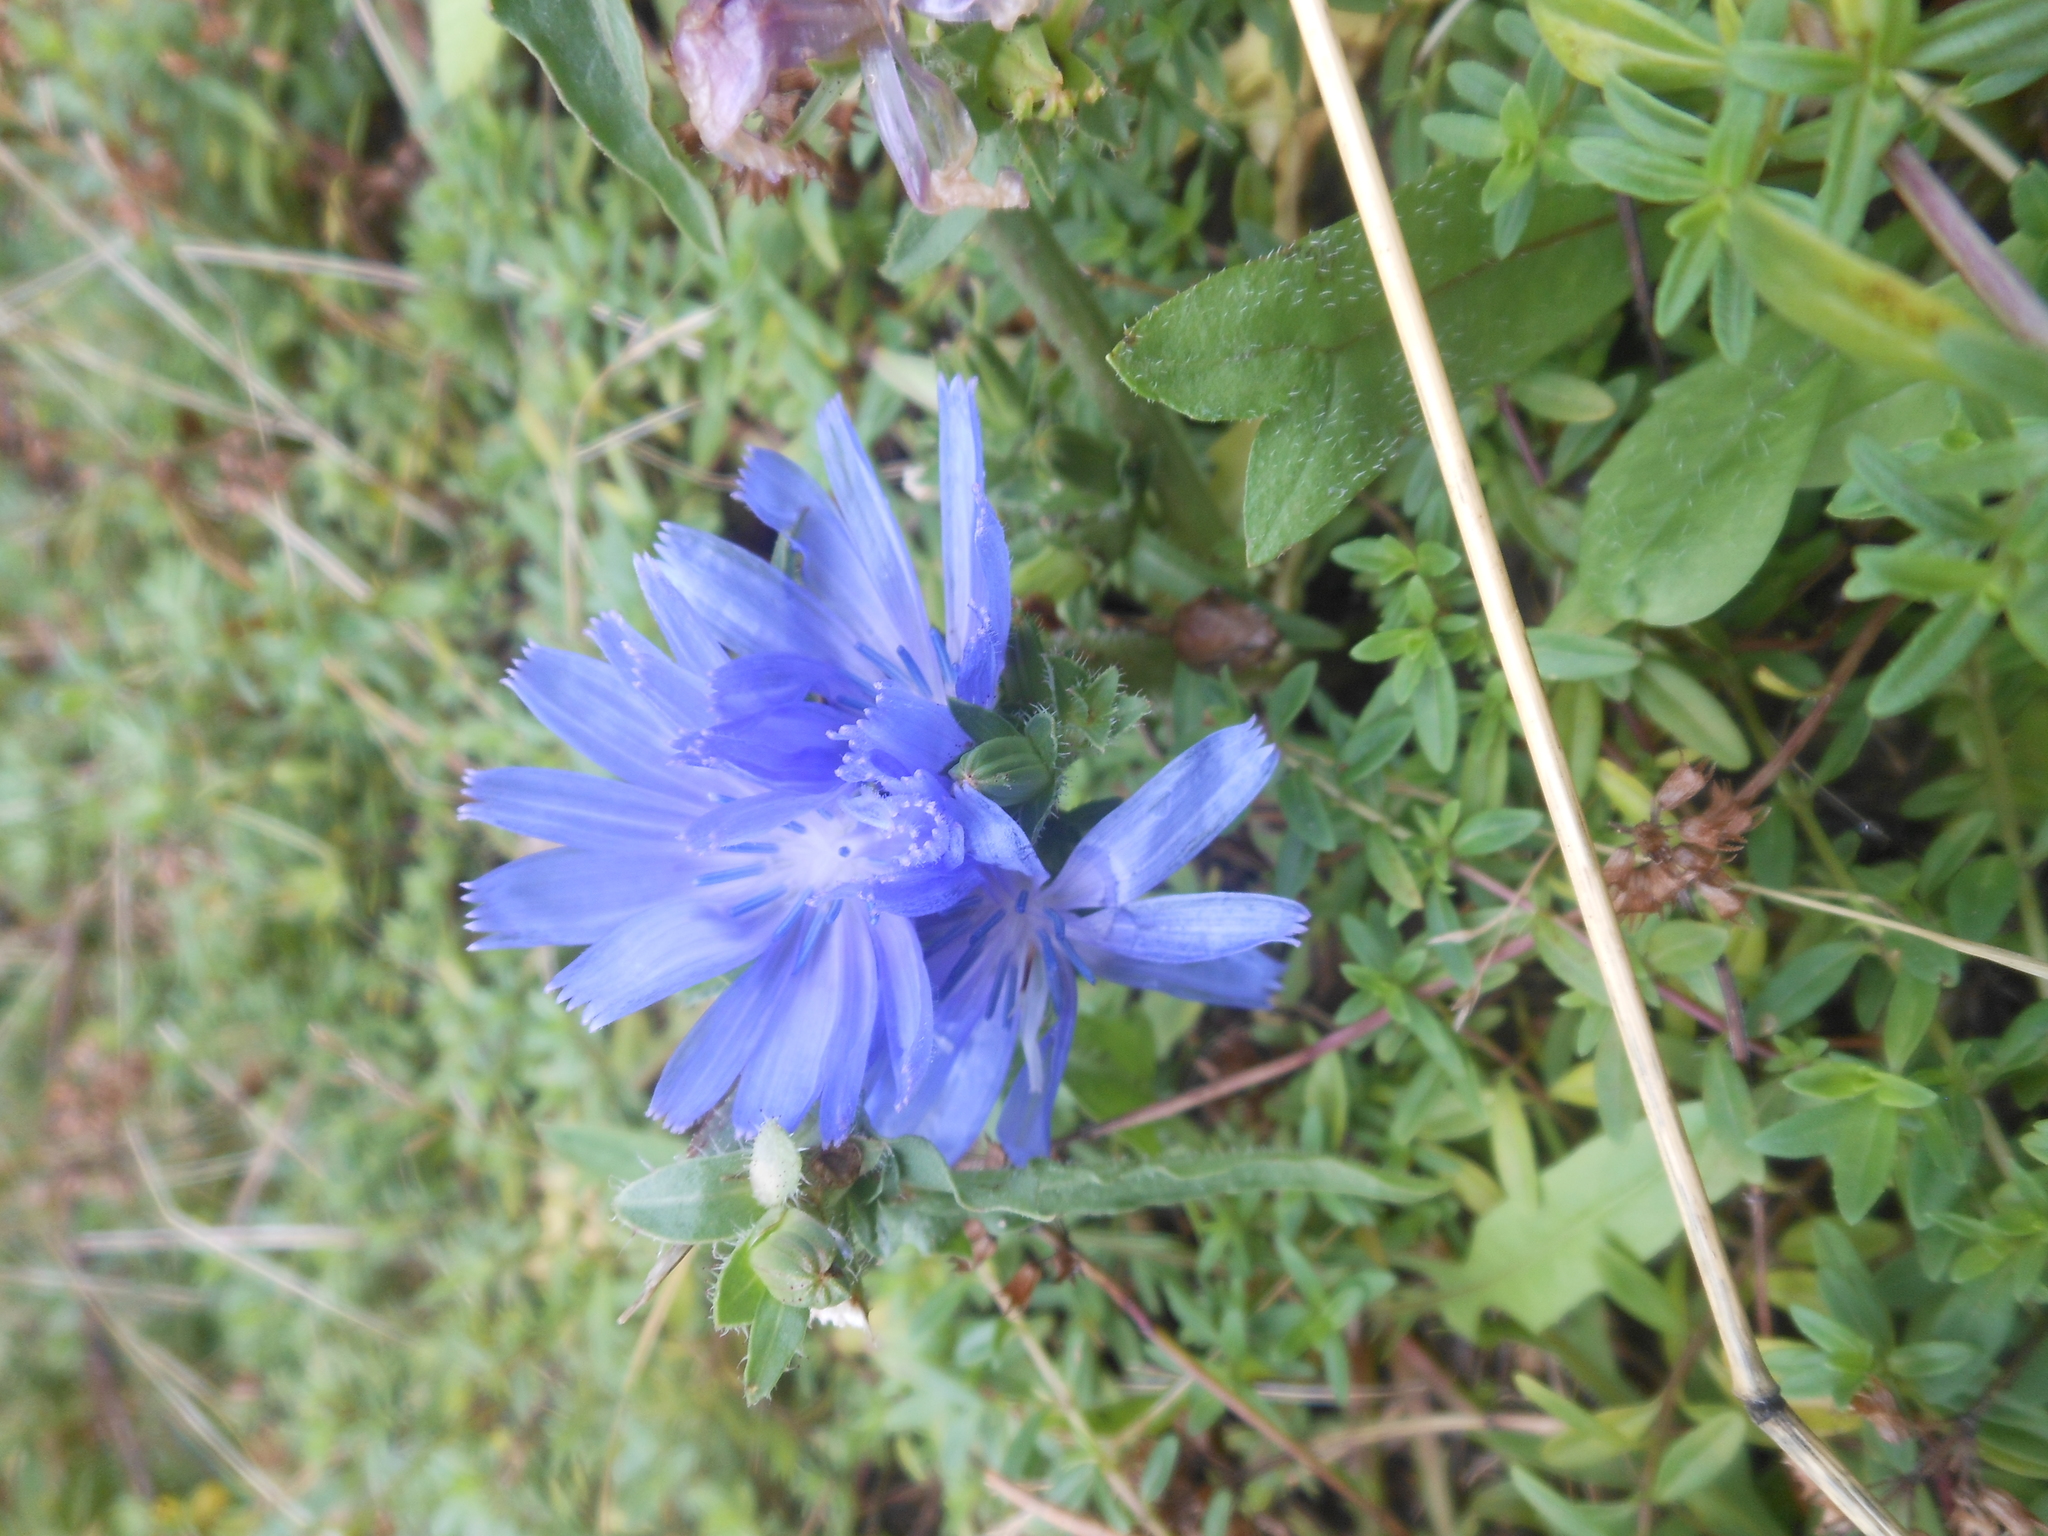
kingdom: Plantae
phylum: Tracheophyta
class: Magnoliopsida
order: Asterales
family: Asteraceae
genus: Cichorium
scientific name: Cichorium intybus
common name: Chicory
